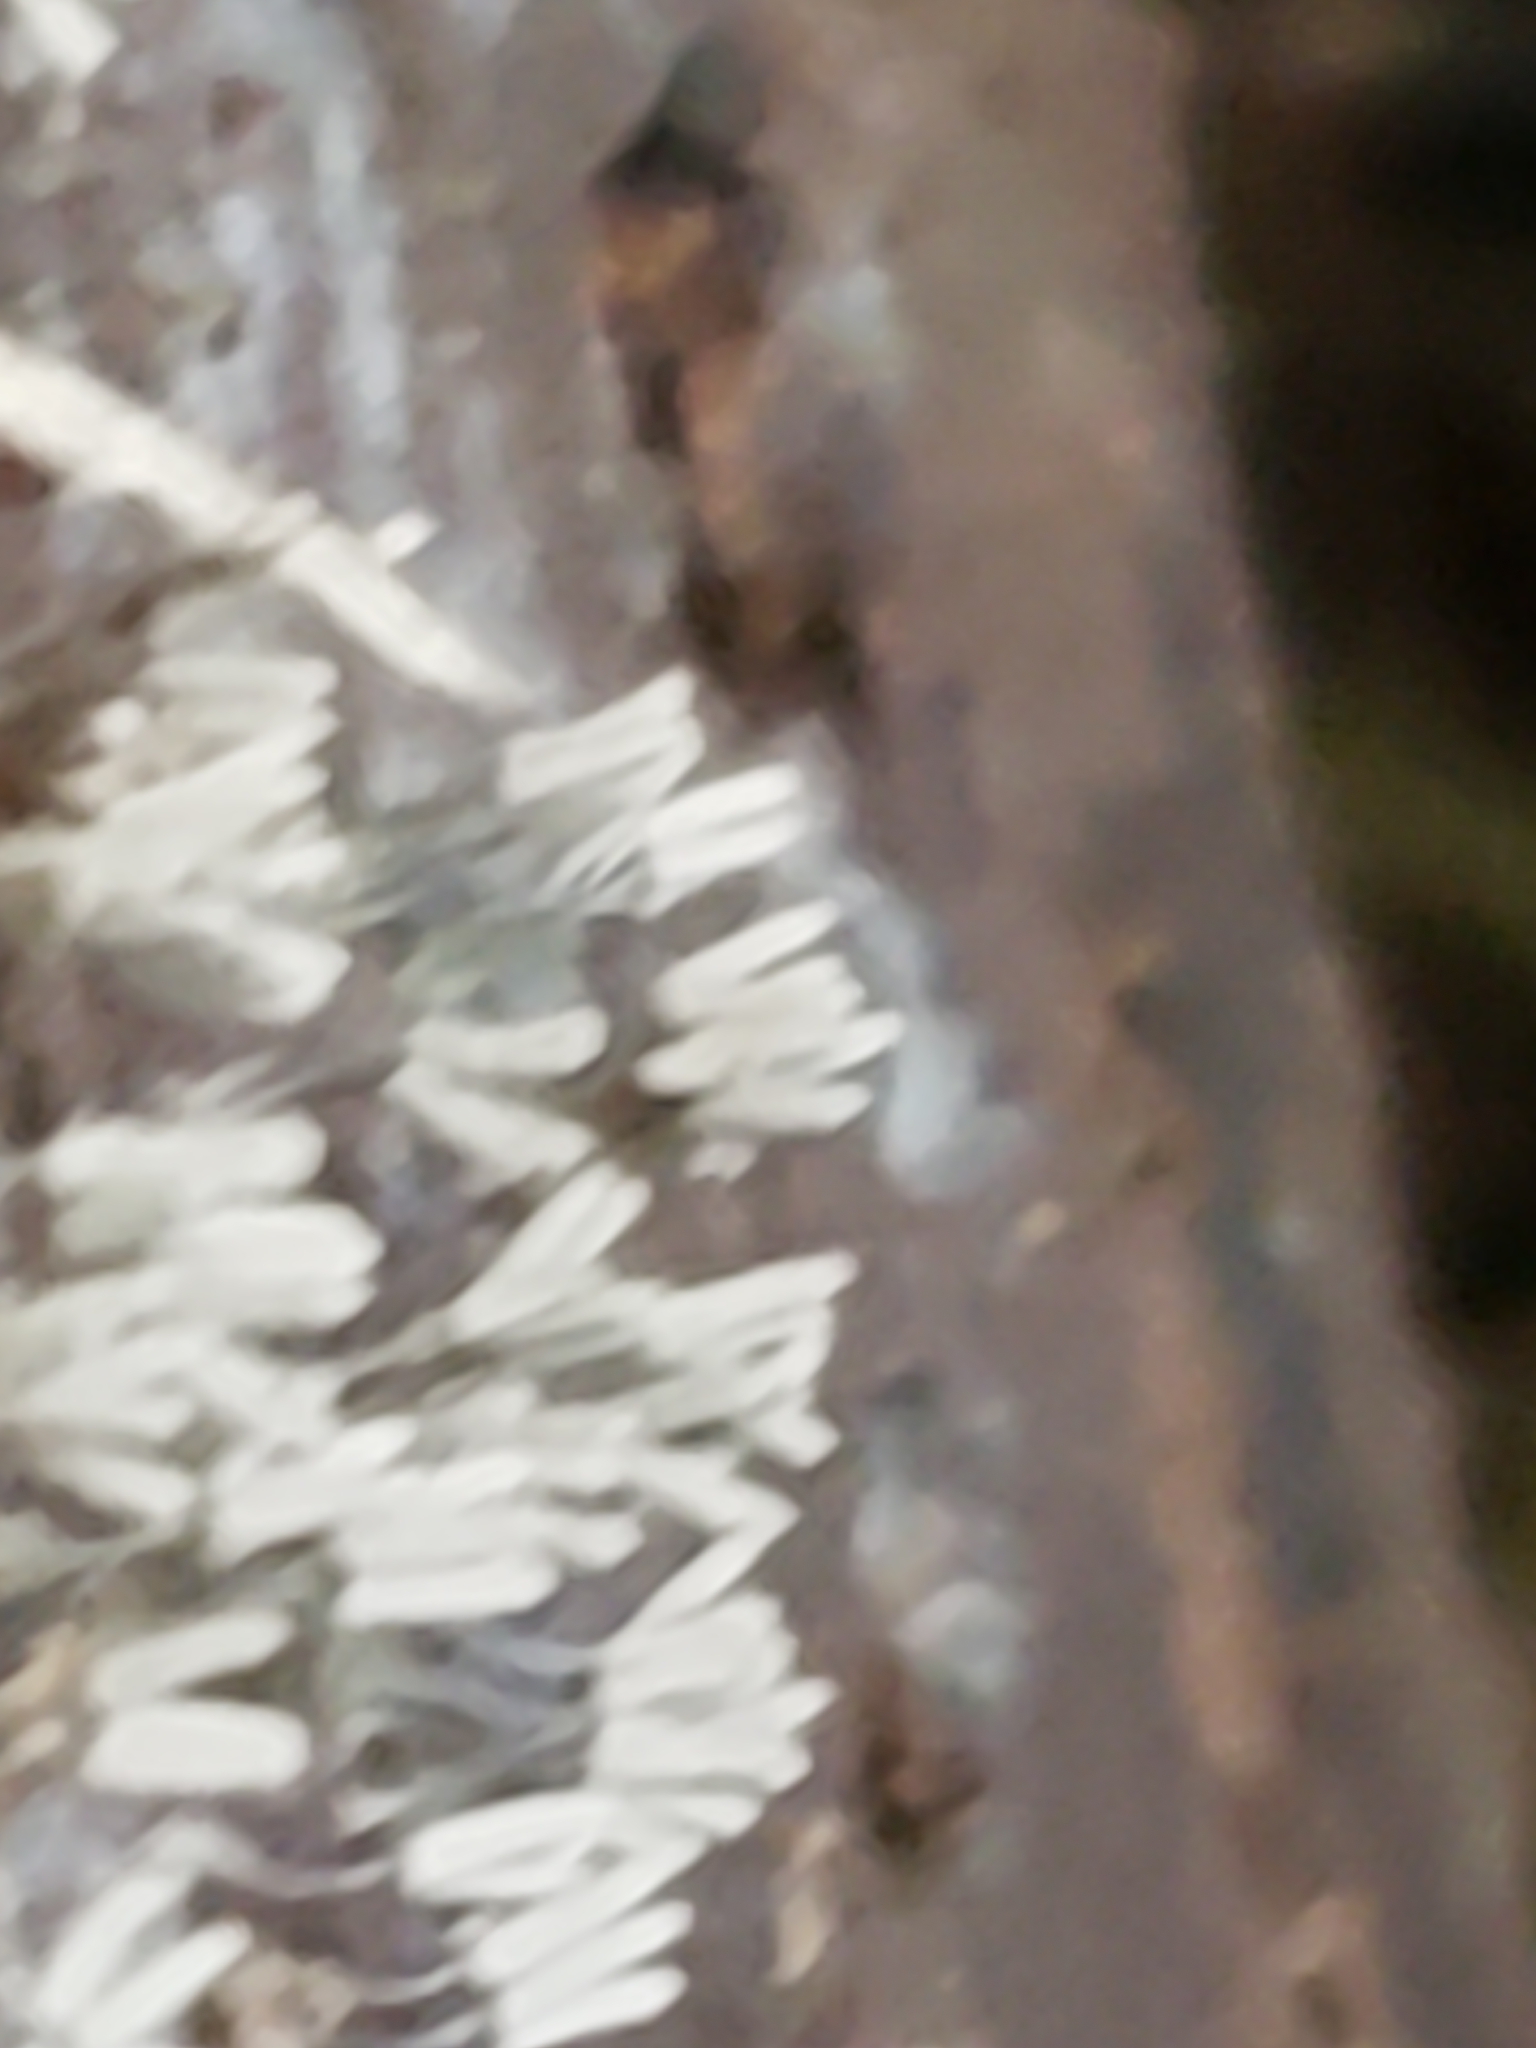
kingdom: Protozoa
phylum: Mycetozoa
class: Myxomycetes
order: Trichiales
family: Arcyriaceae
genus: Arcyria
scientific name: Arcyria cinerea
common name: White carnival candy slime mold
